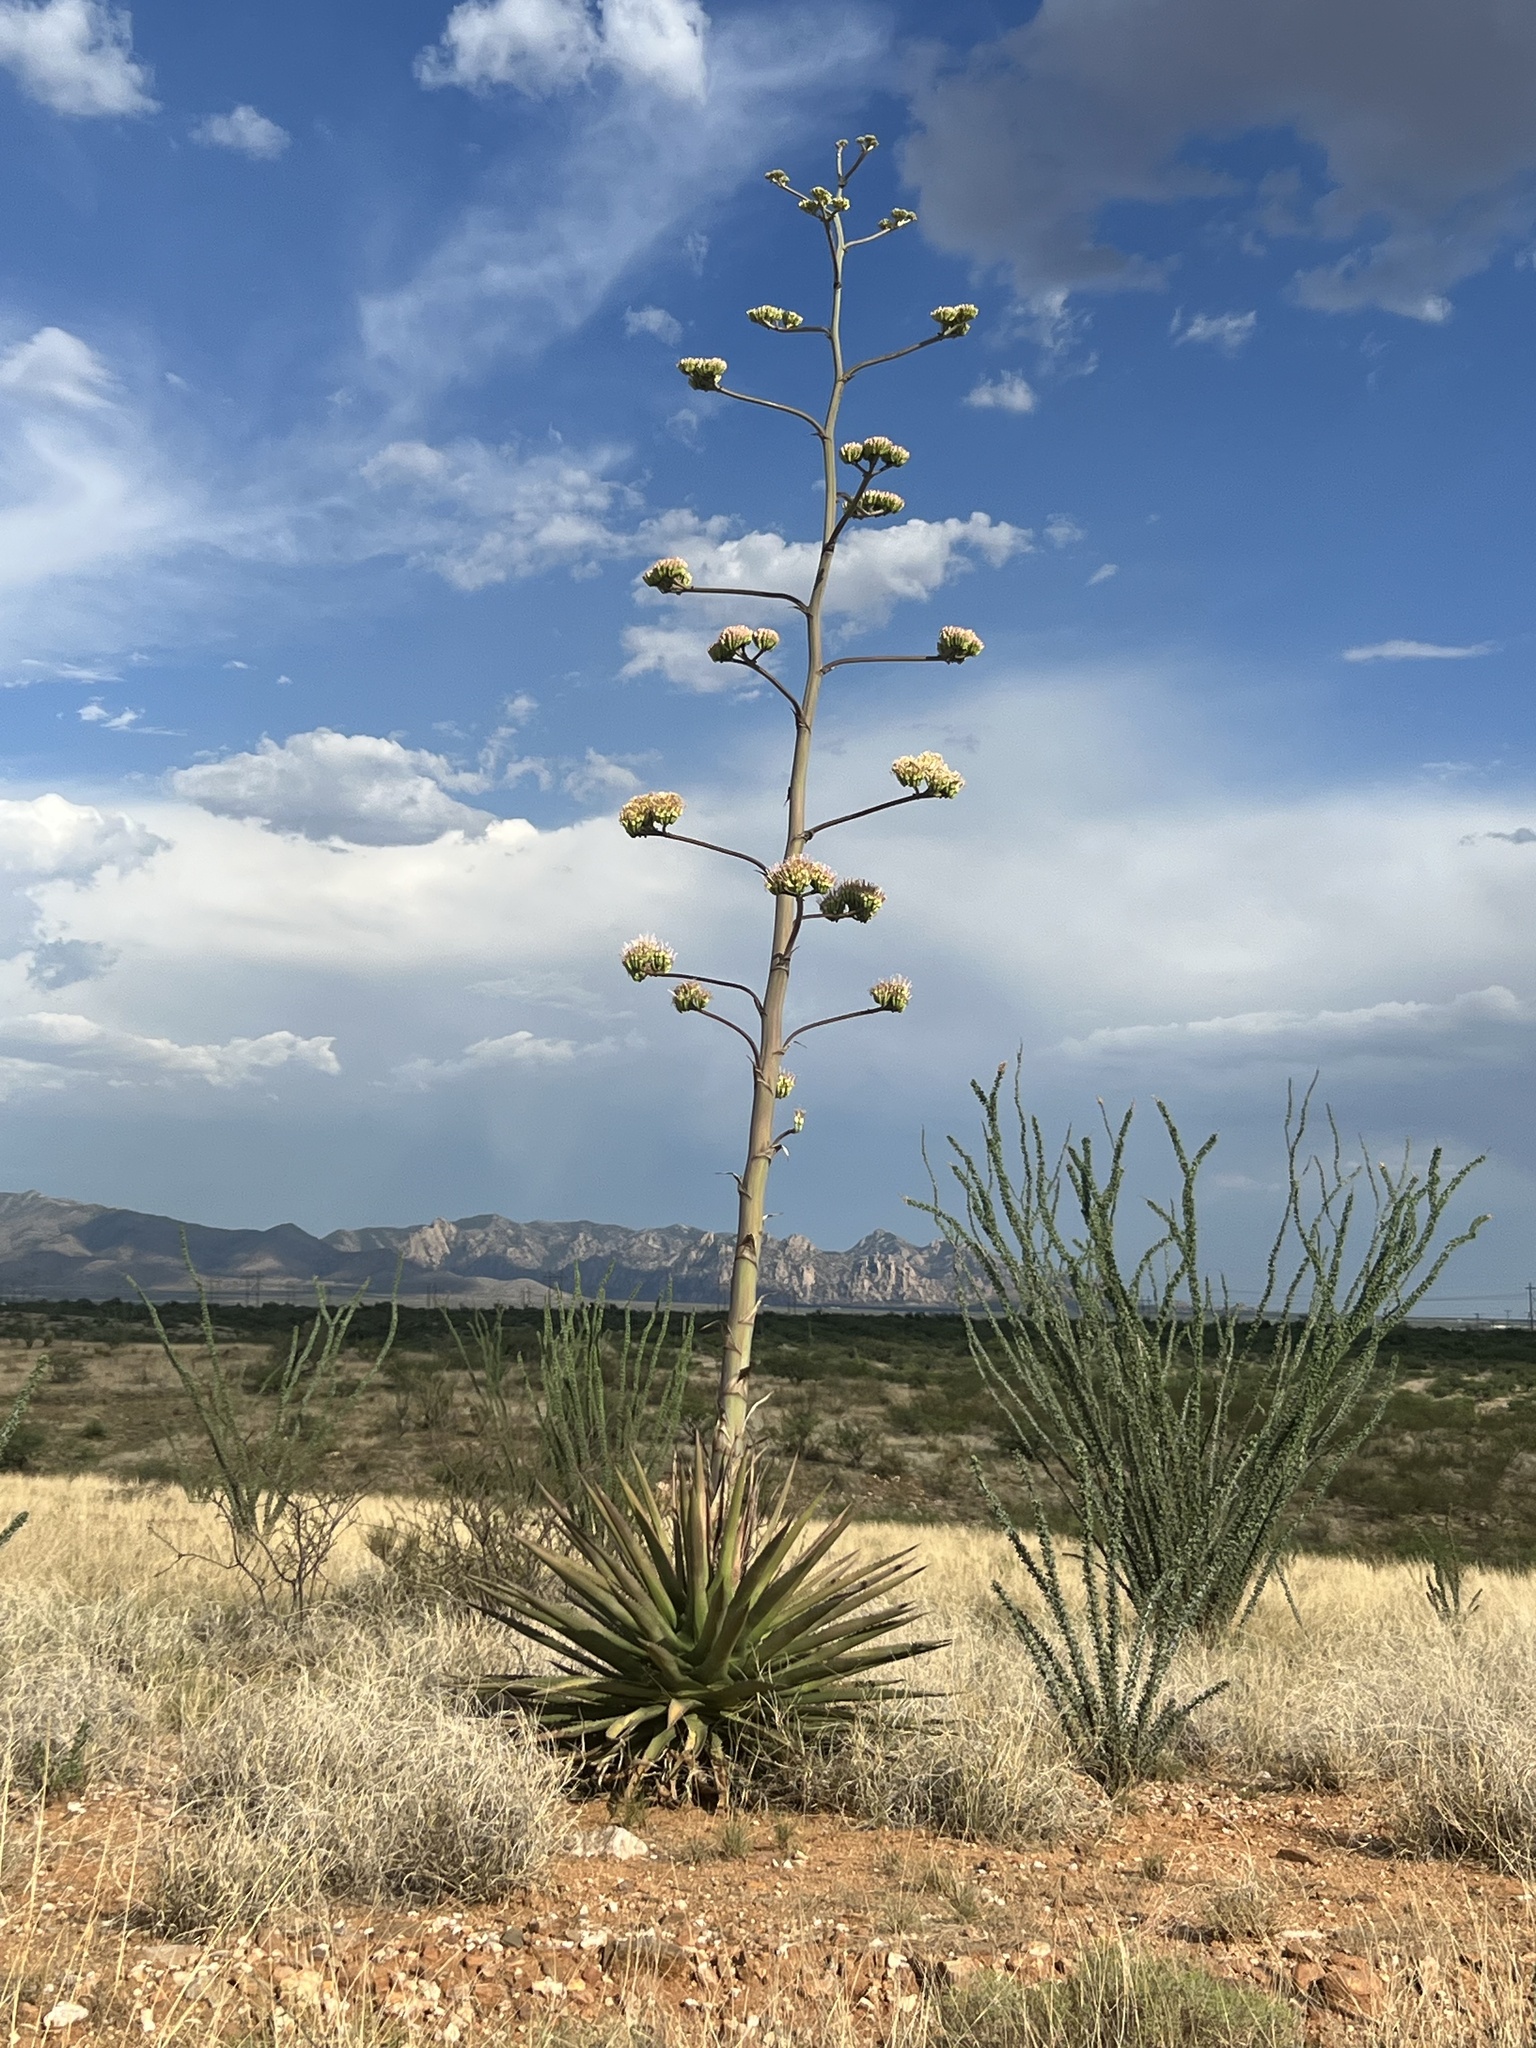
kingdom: Plantae
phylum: Tracheophyta
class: Liliopsida
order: Asparagales
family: Asparagaceae
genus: Agave
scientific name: Agave palmeri
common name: Palmer agave
